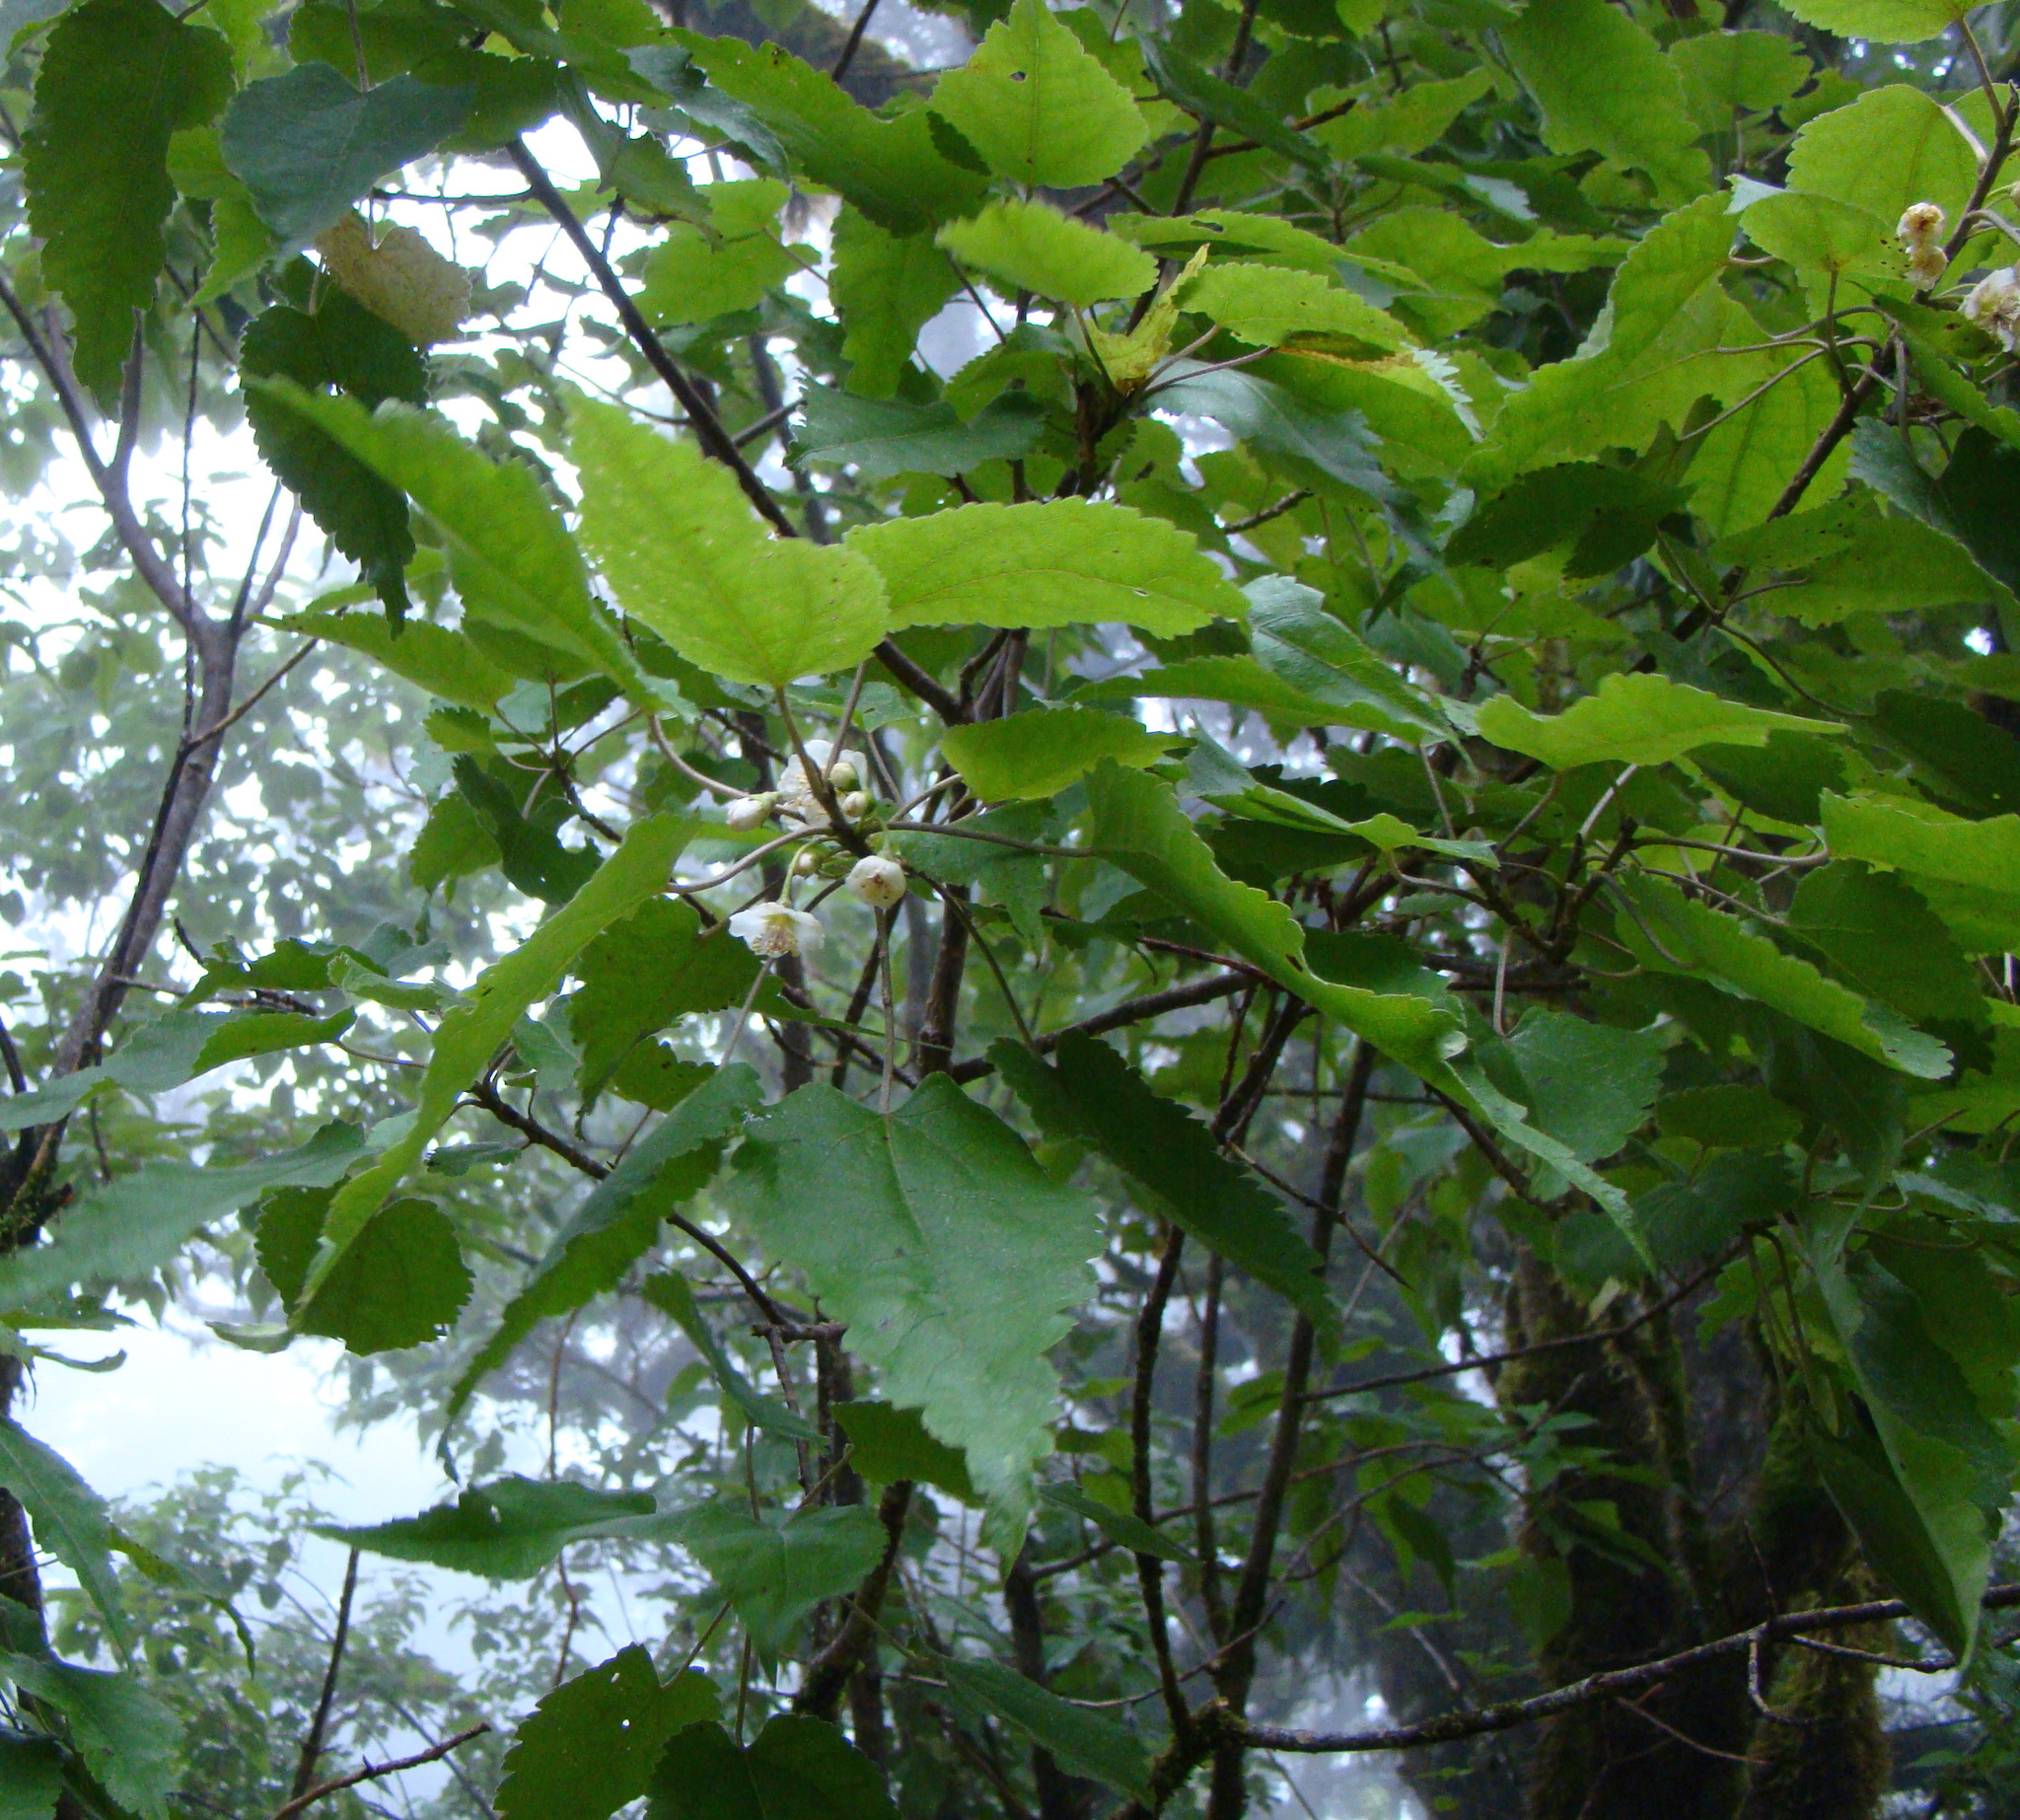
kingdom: Plantae
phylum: Tracheophyta
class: Magnoliopsida
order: Malvales
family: Malvaceae
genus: Hoheria
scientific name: Hoheria glabrata
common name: Mountain-ribbon
